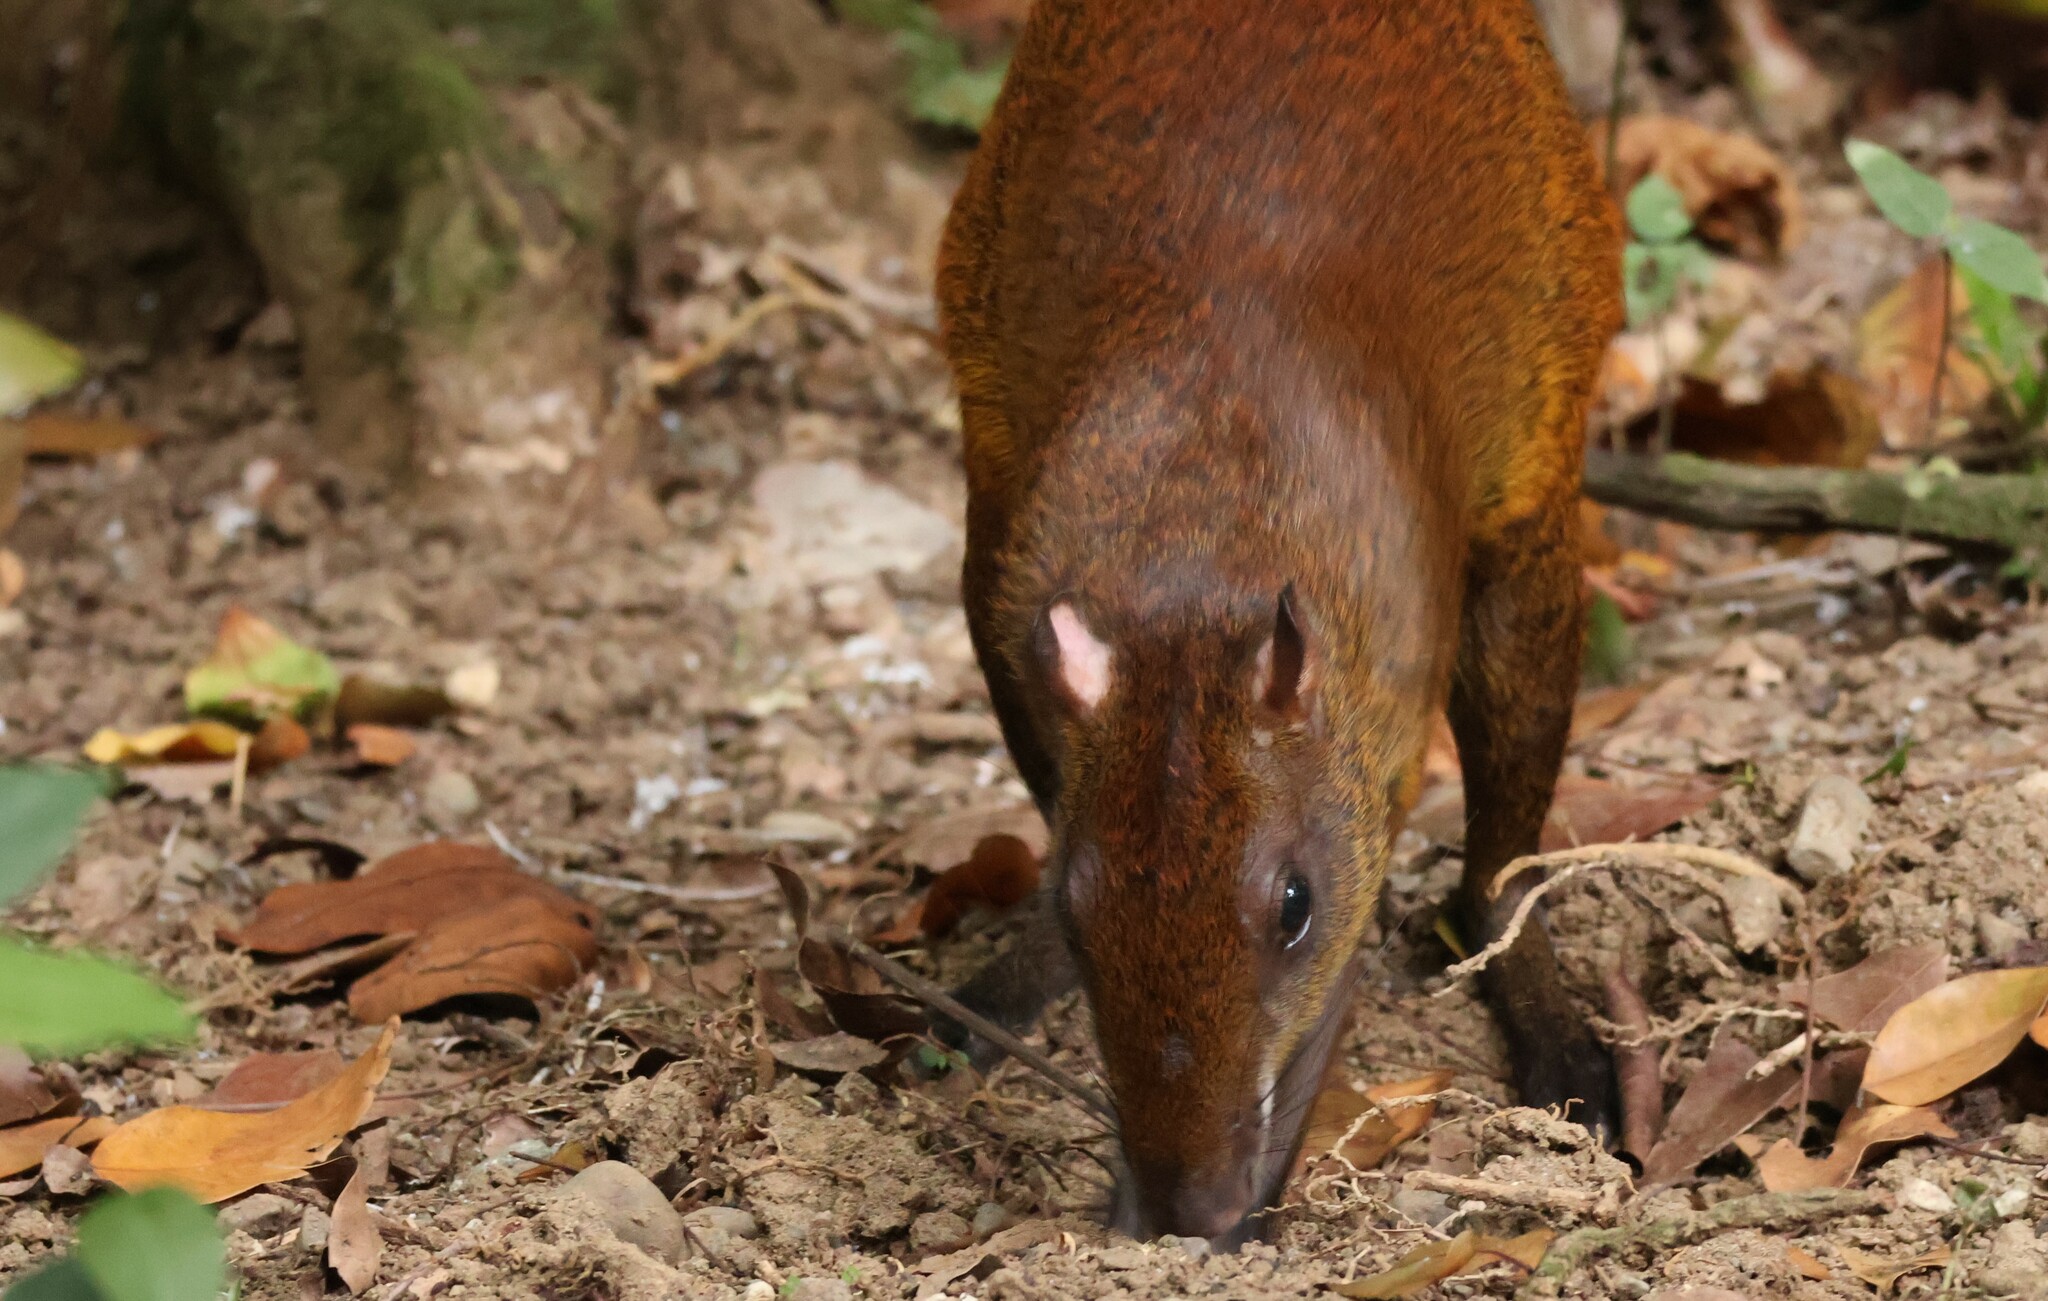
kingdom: Animalia
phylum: Chordata
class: Mammalia
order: Rodentia
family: Dasyproctidae
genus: Dasyprocta
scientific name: Dasyprocta punctata
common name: Central american agouti
